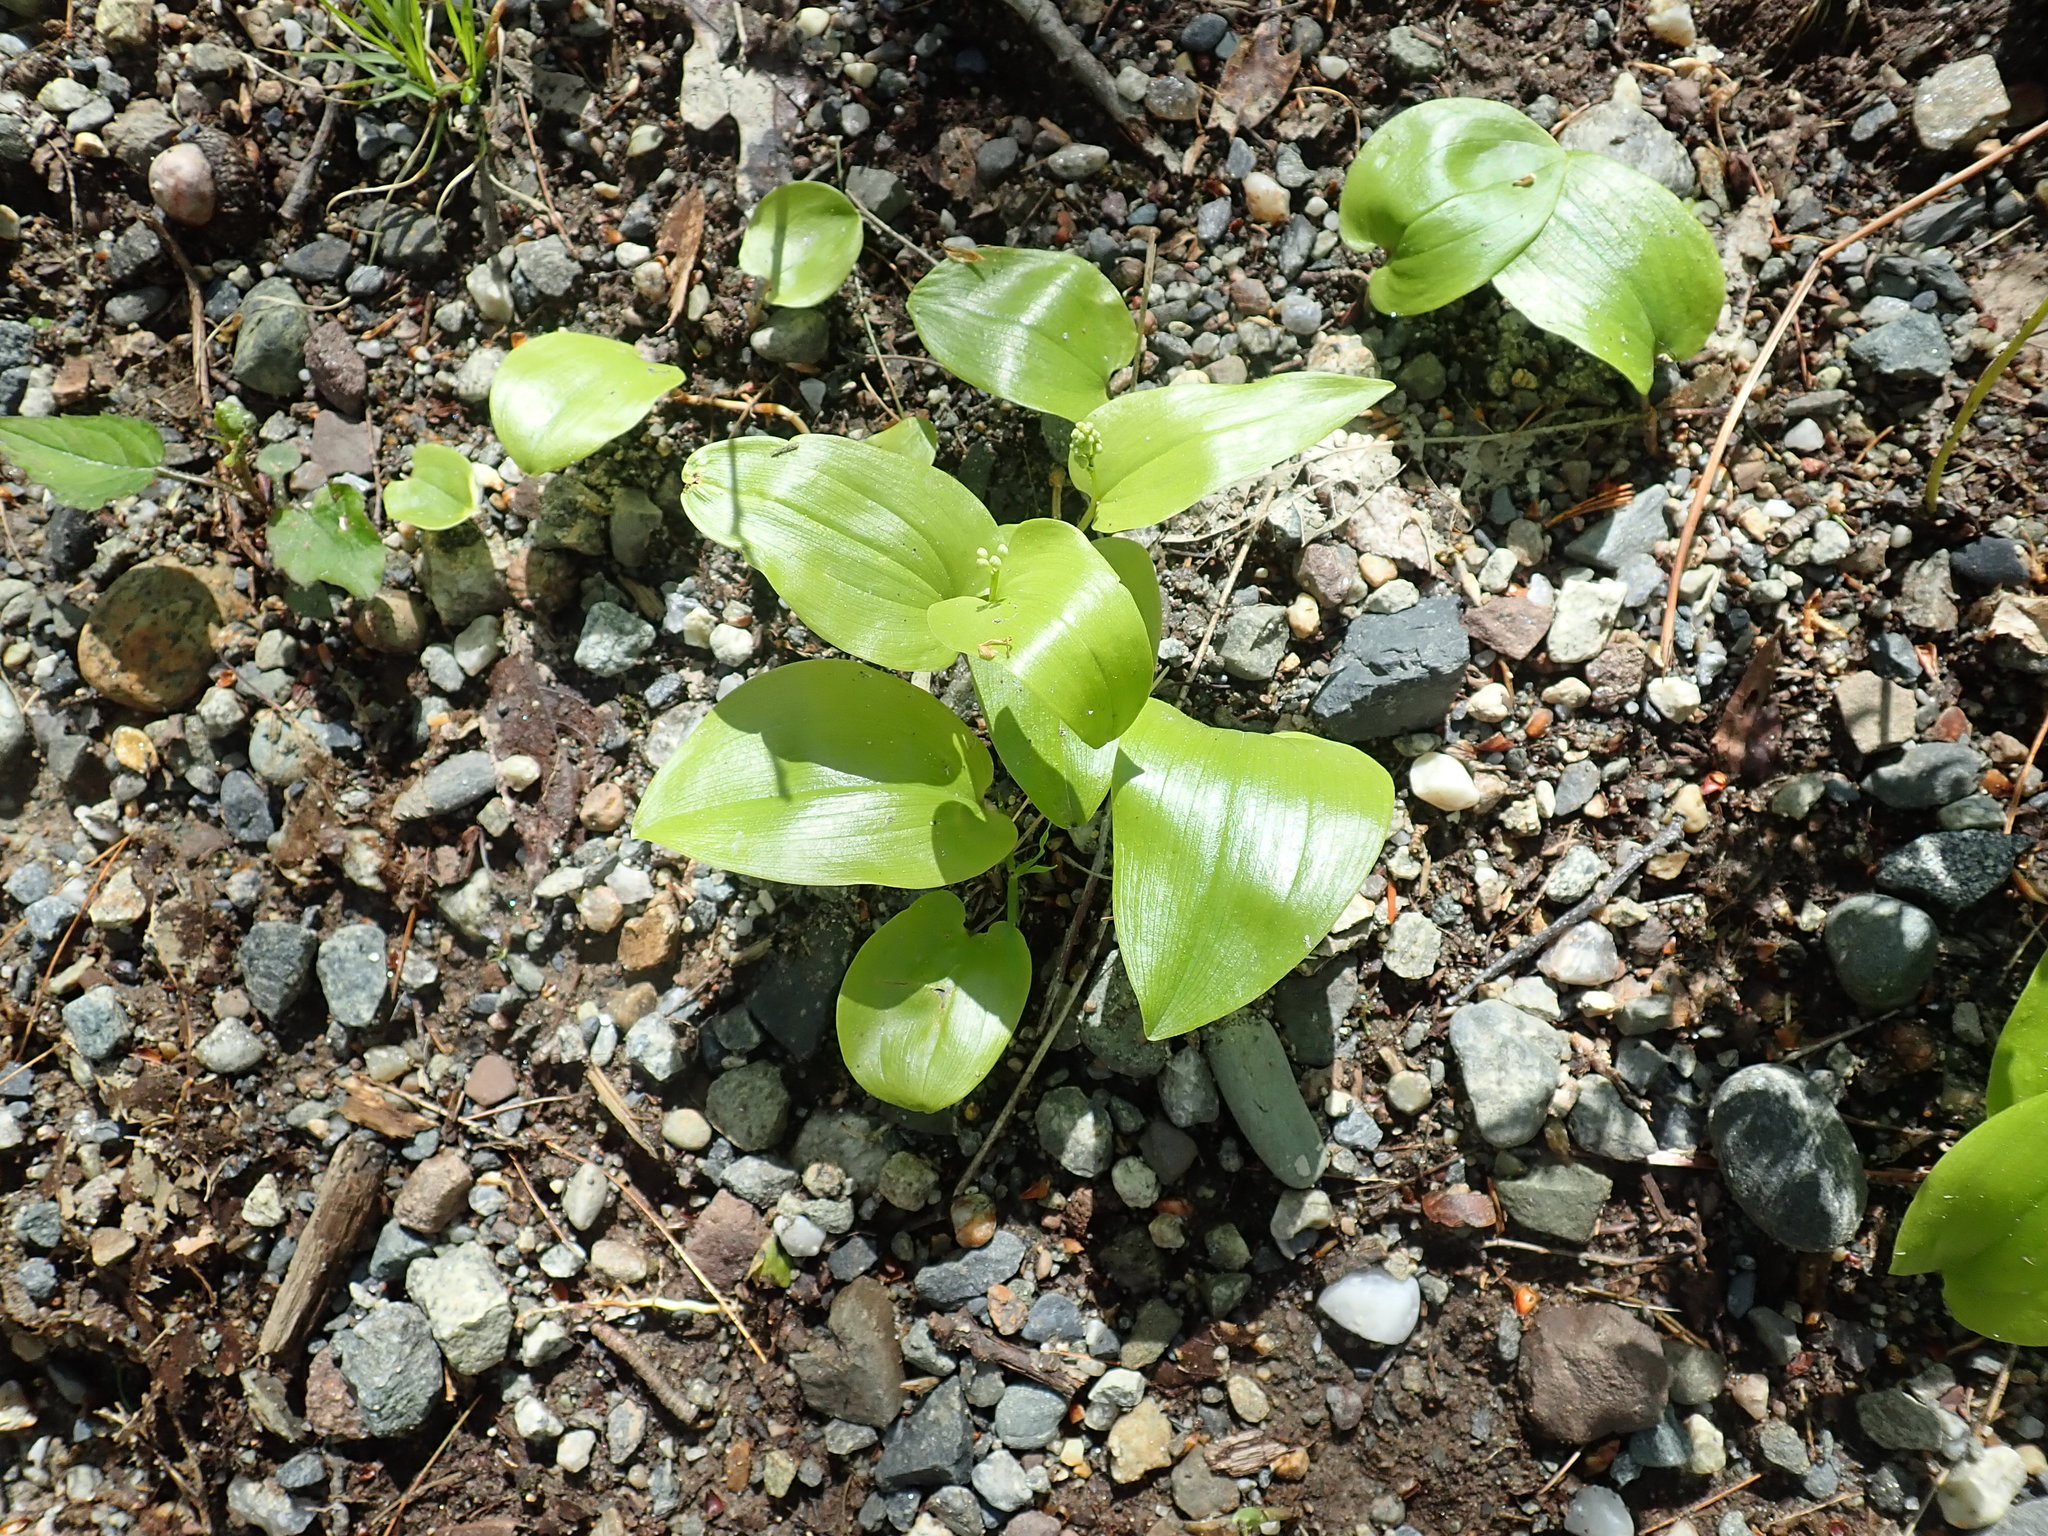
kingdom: Plantae
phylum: Tracheophyta
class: Liliopsida
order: Asparagales
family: Asparagaceae
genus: Maianthemum
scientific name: Maianthemum canadense
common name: False lily-of-the-valley
